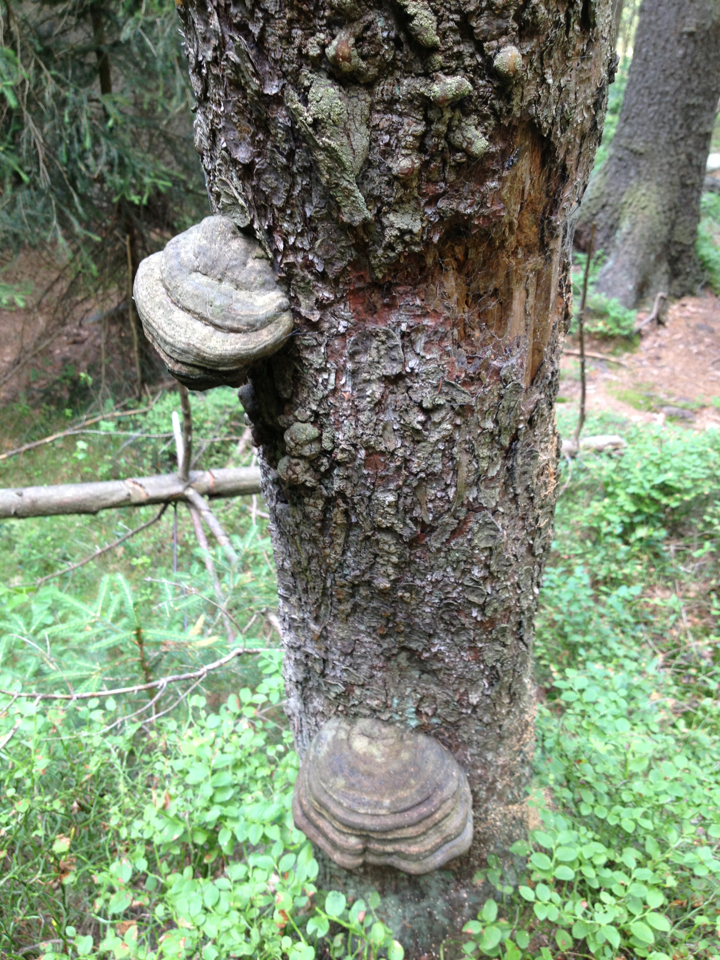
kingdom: Fungi
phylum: Basidiomycota
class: Agaricomycetes
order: Polyporales
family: Polyporaceae
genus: Fomes
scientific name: Fomes fomentarius
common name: Hoof fungus
